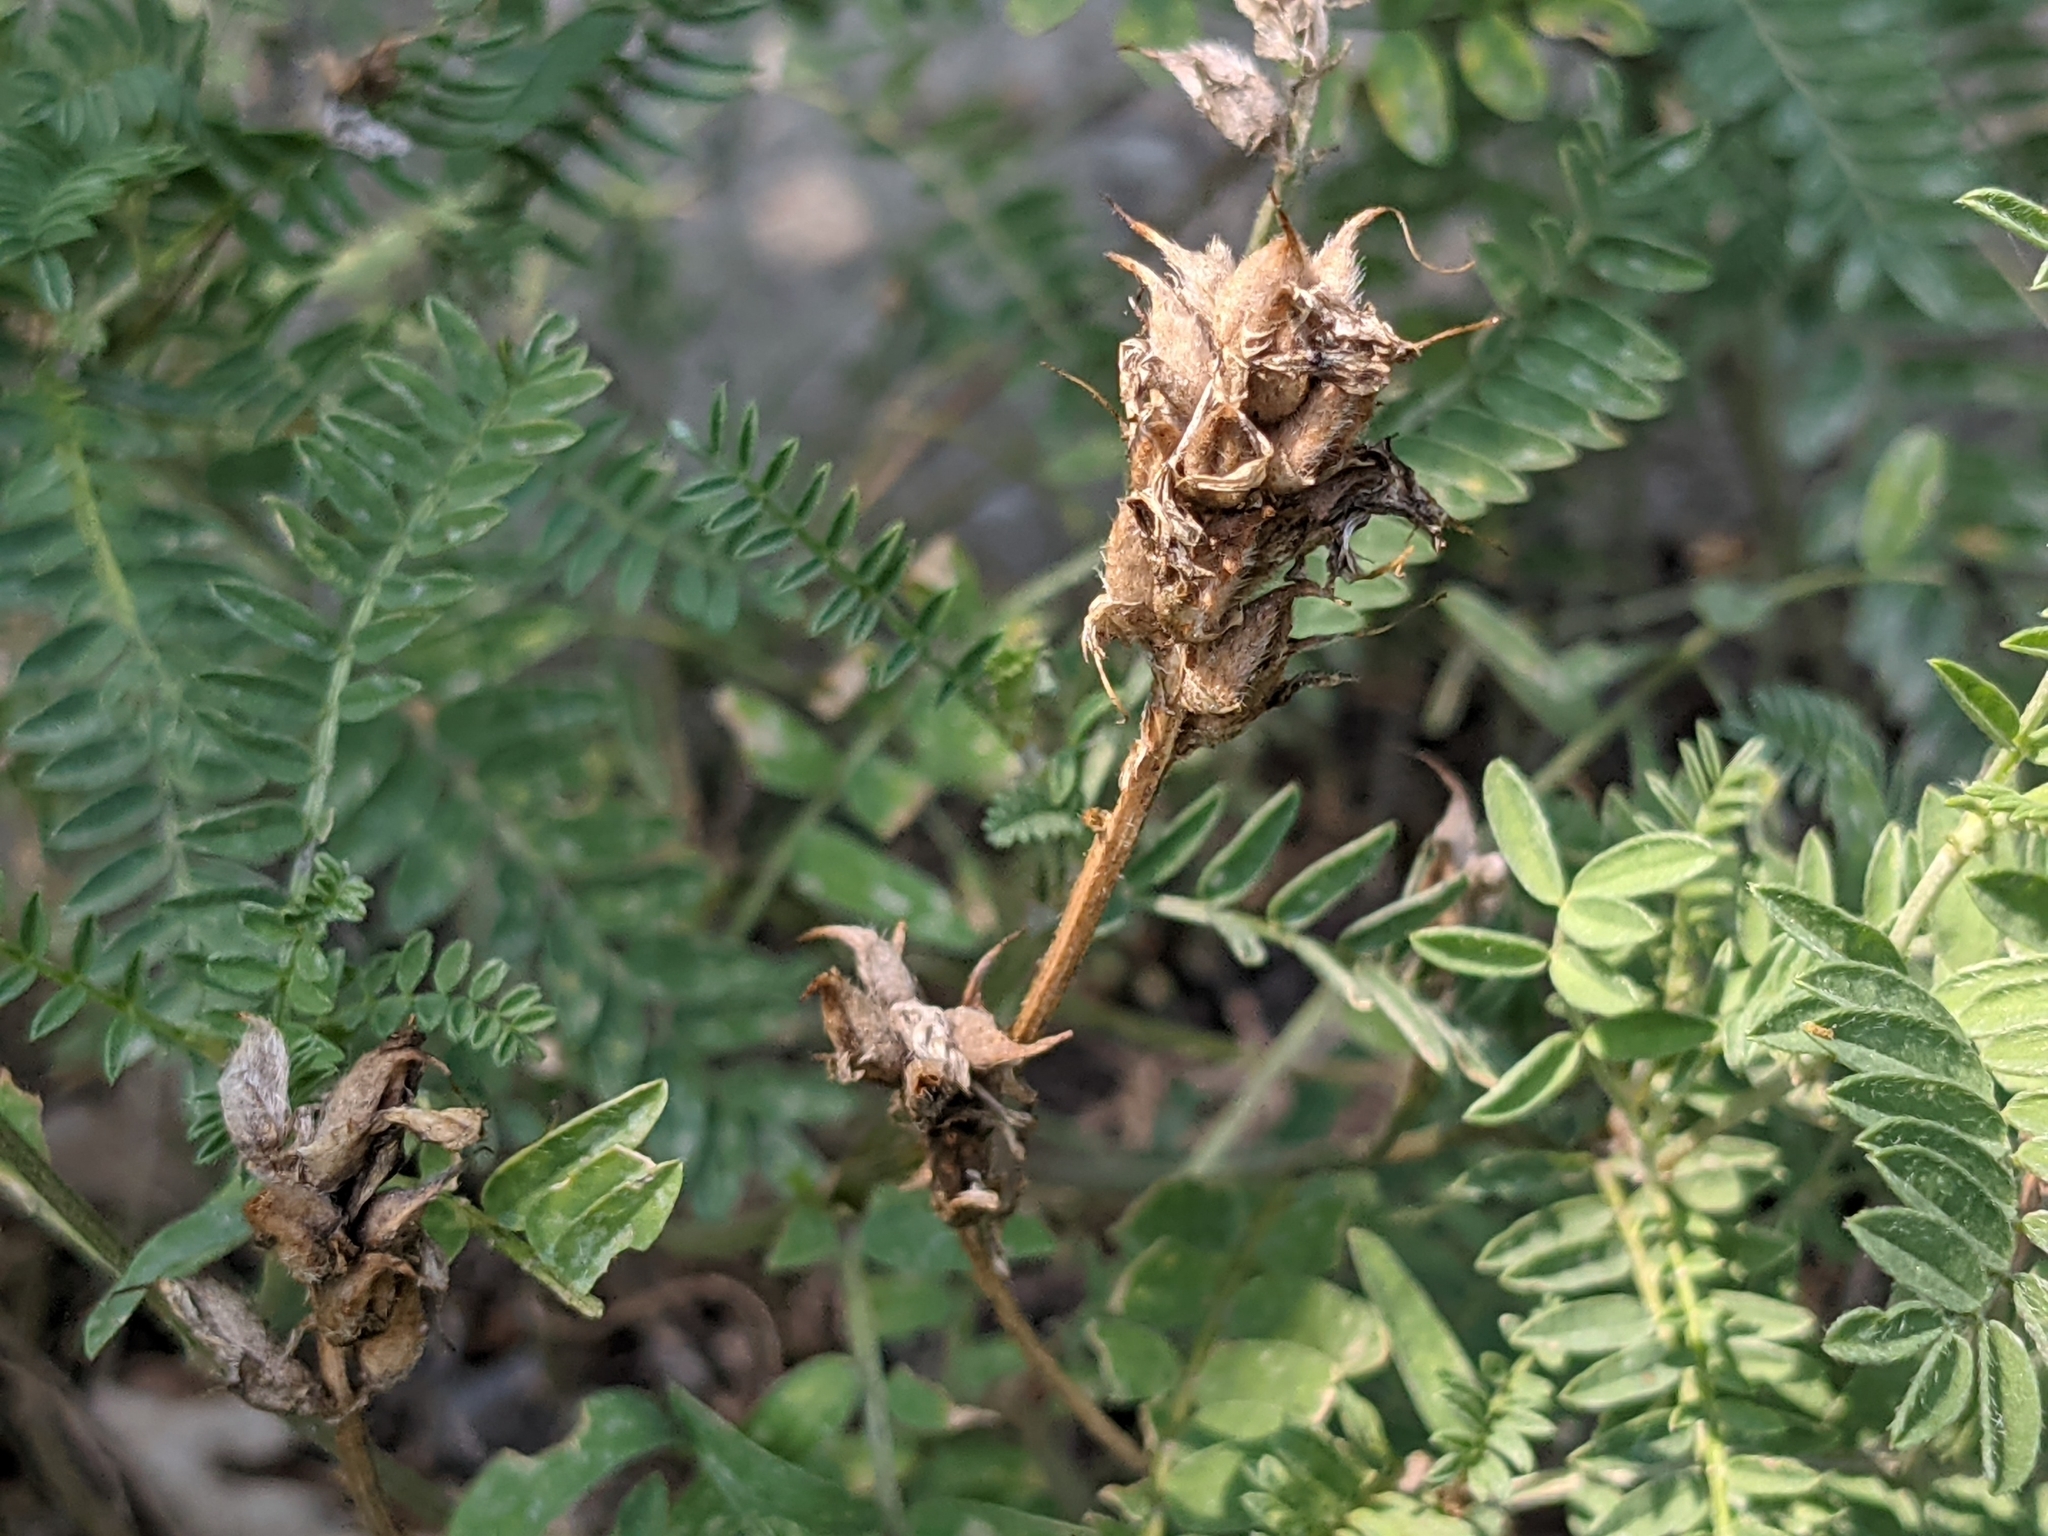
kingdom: Plantae
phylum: Tracheophyta
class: Magnoliopsida
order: Fabales
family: Fabaceae
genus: Astragalus
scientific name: Astragalus onobrychis
